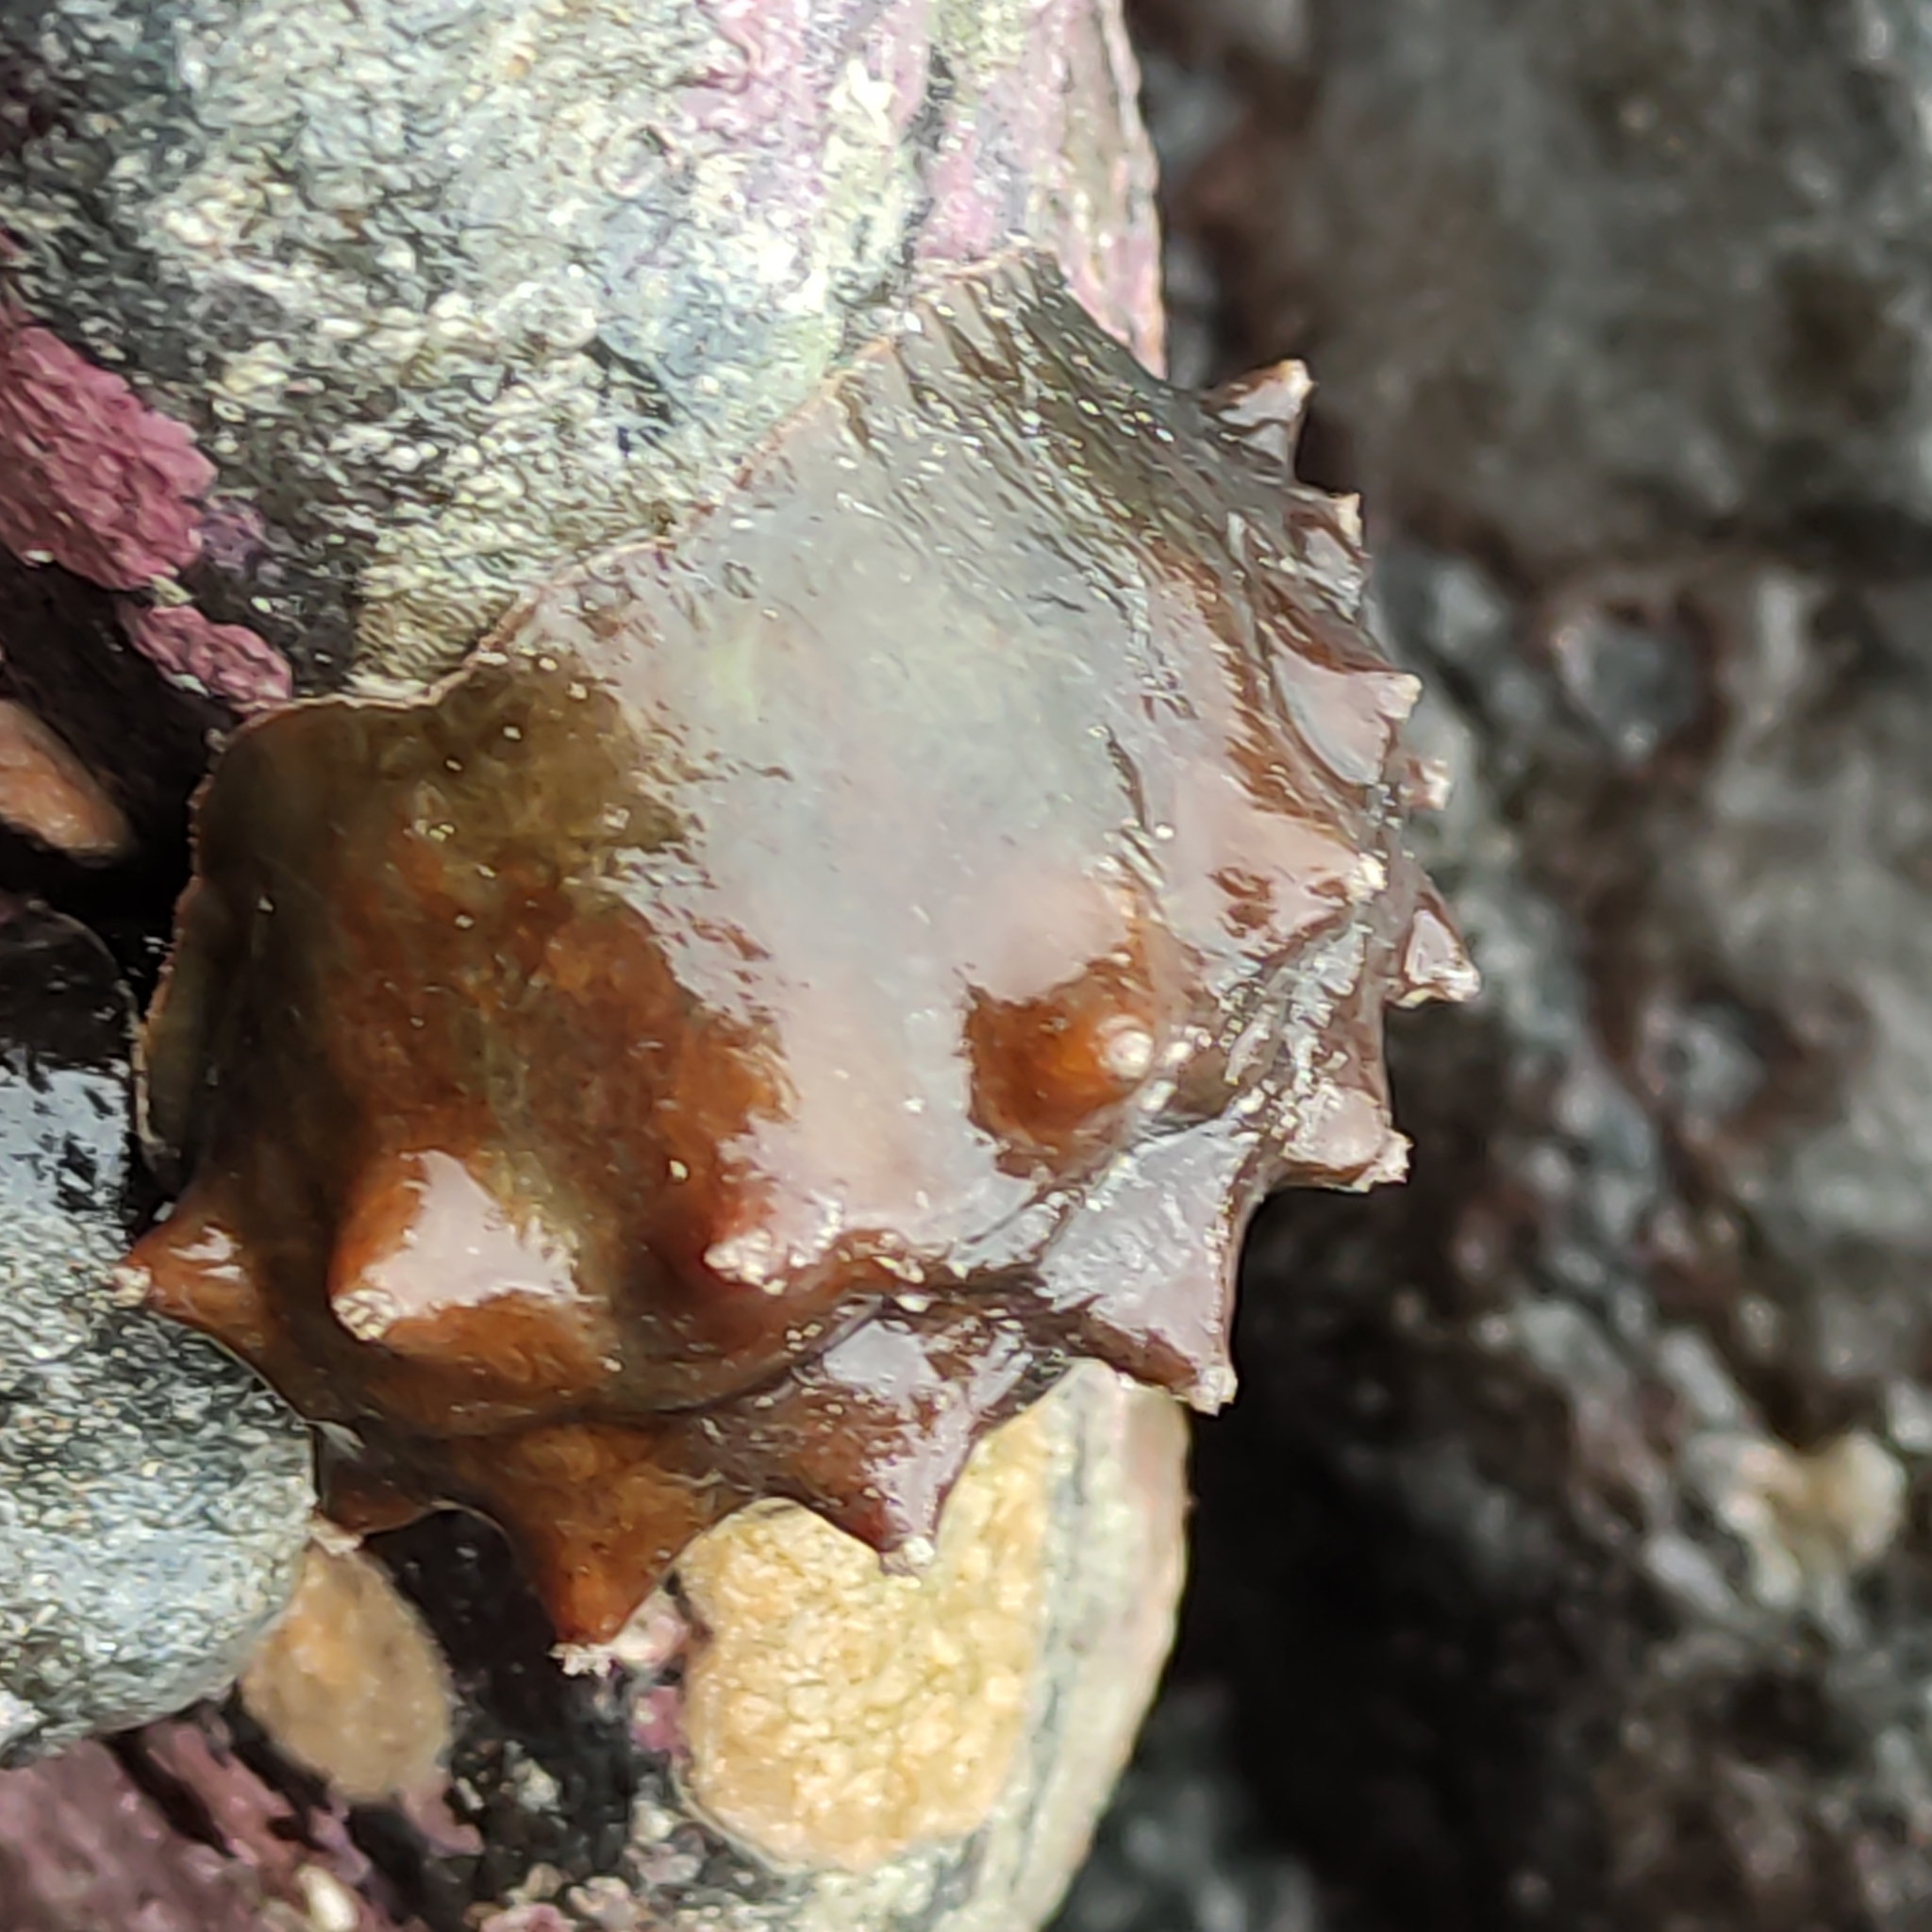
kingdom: Animalia
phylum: Mollusca
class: Polyplacophora
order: Chitonida
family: Acanthochitonidae
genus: Cryptoconchus
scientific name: Cryptoconchus porosus
